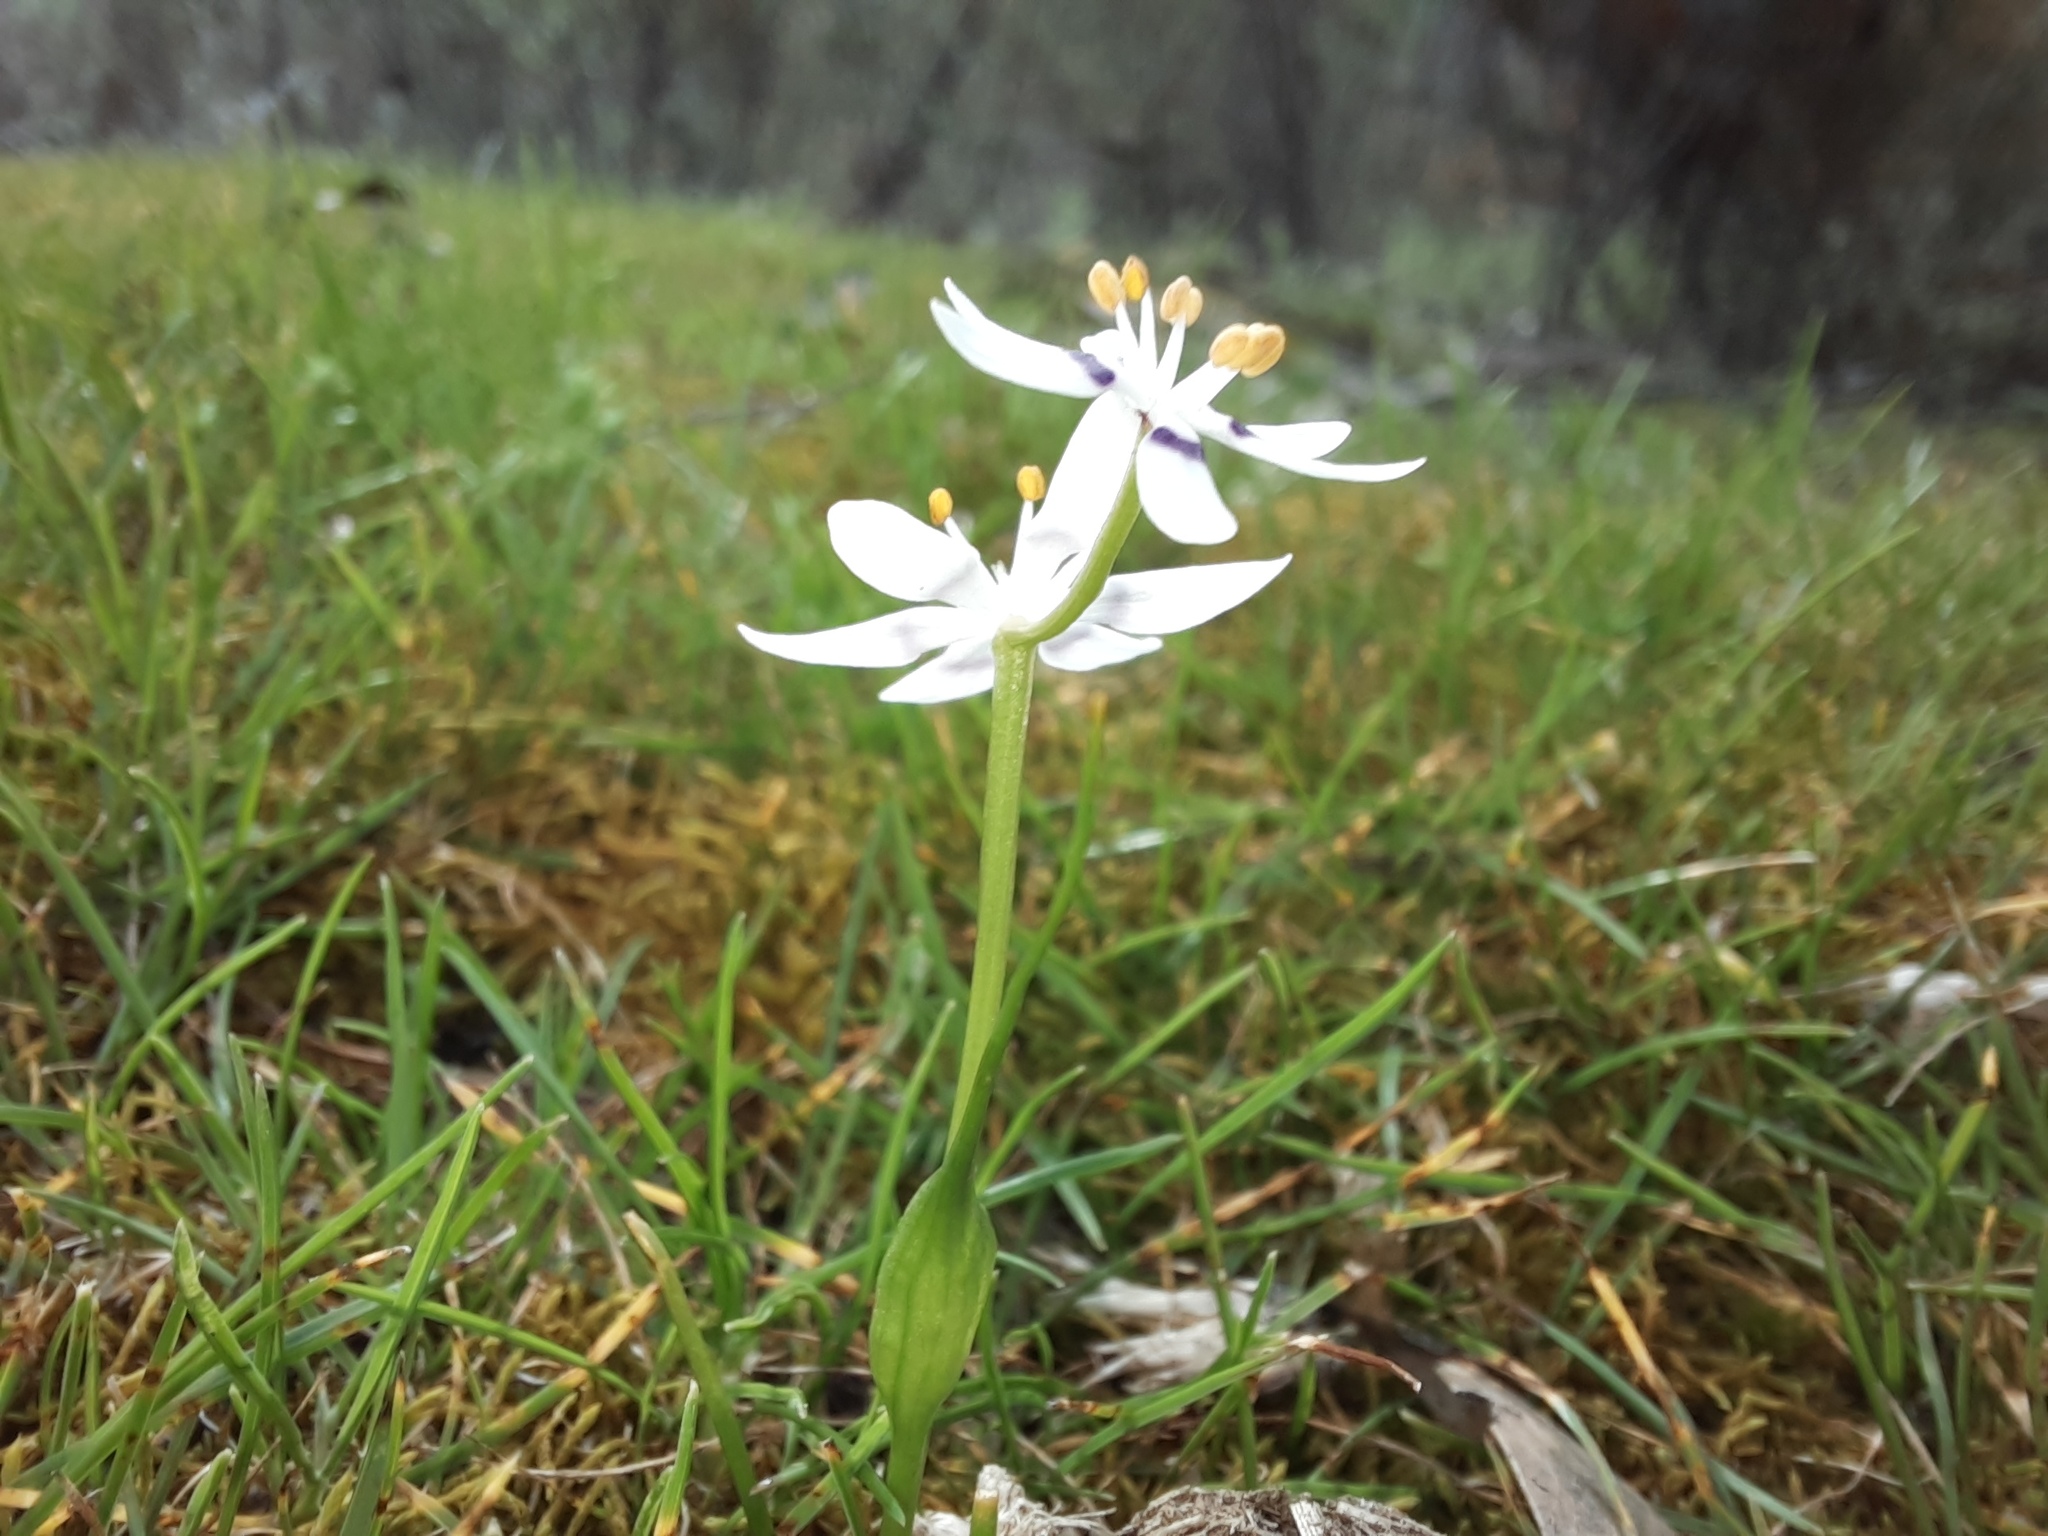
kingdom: Plantae
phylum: Tracheophyta
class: Liliopsida
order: Liliales
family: Colchicaceae
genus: Wurmbea
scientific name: Wurmbea dioica
